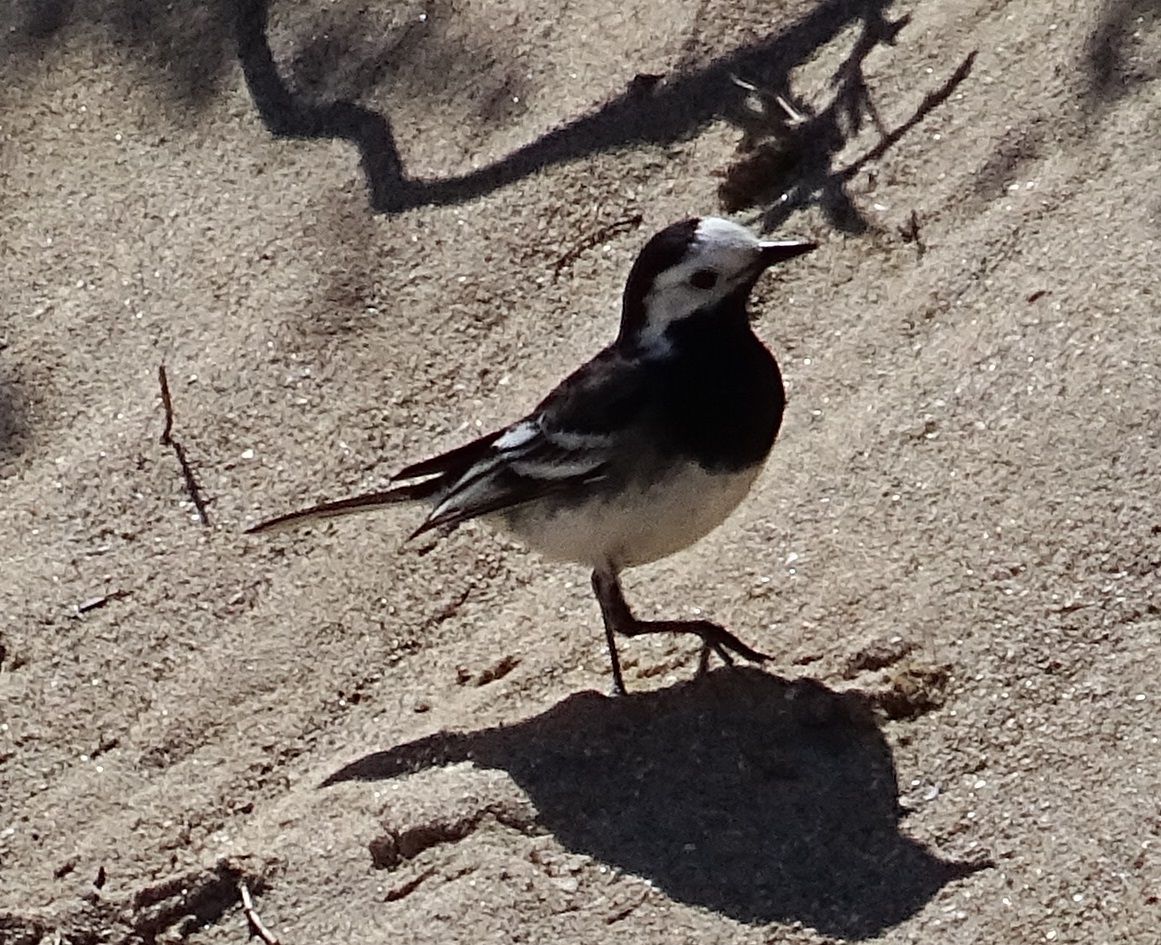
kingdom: Animalia
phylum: Chordata
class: Aves
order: Passeriformes
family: Motacillidae
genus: Motacilla
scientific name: Motacilla alba
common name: White wagtail
